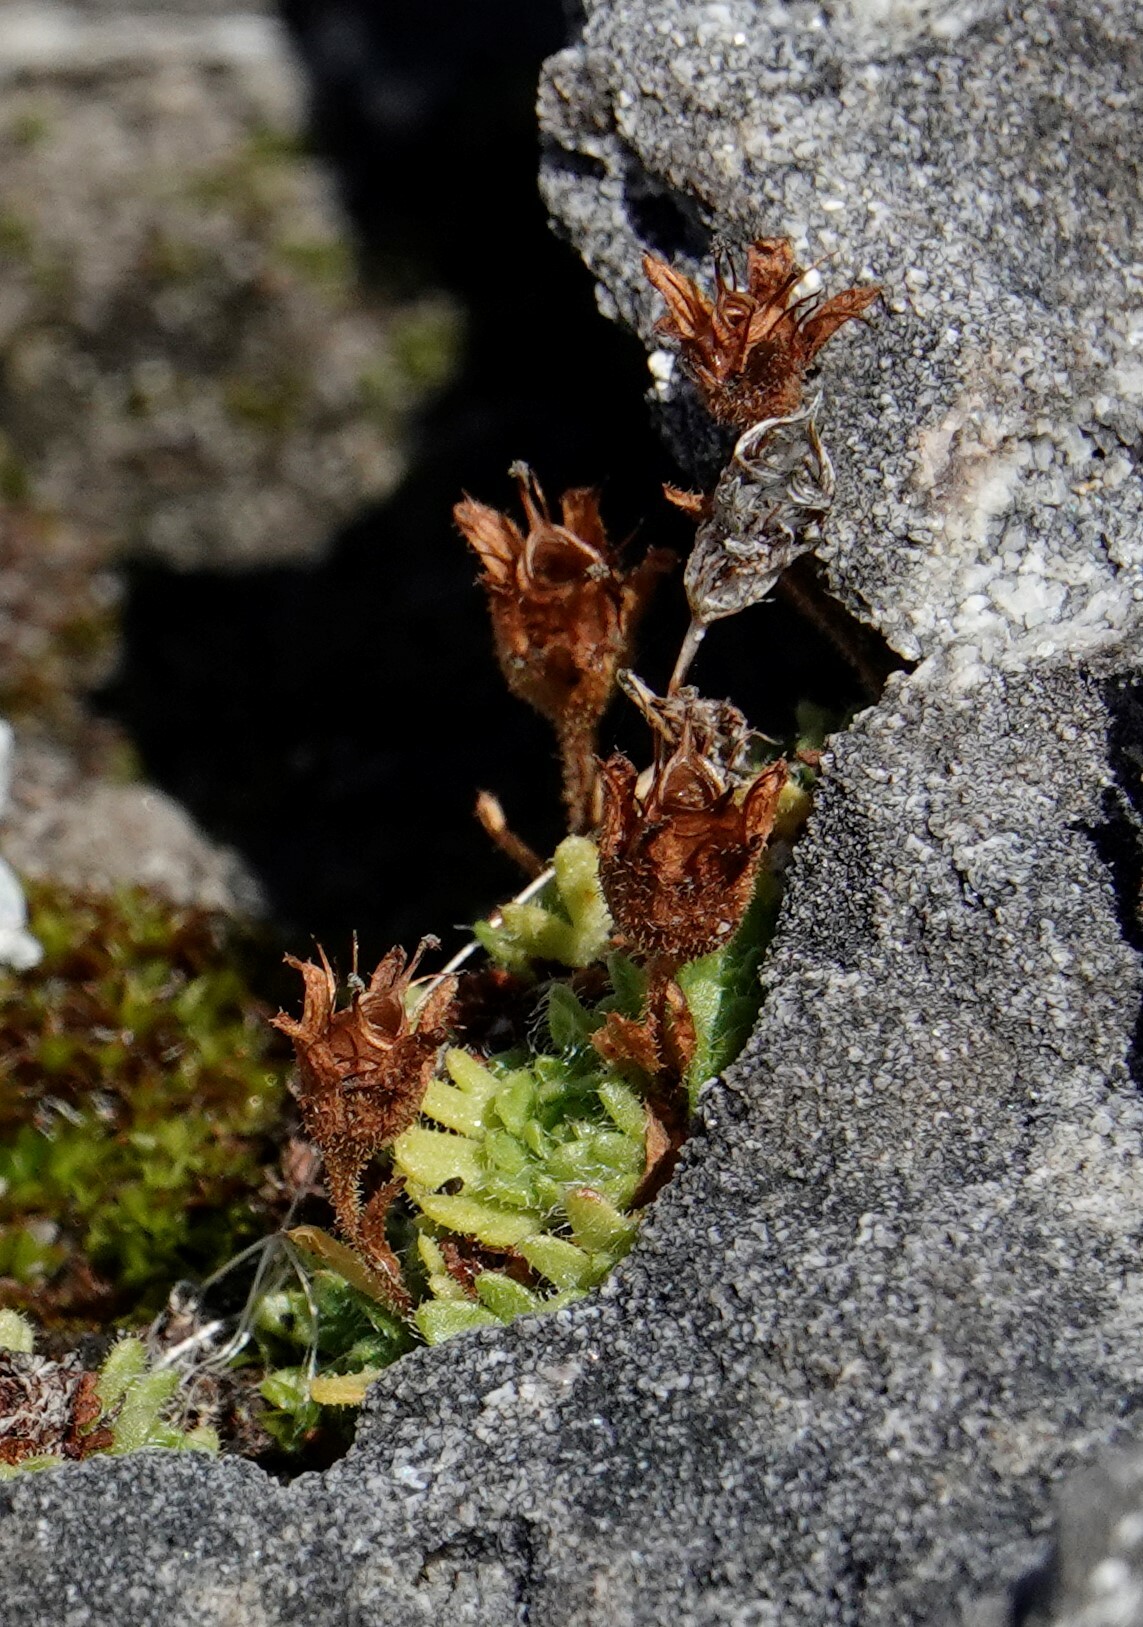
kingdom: Plantae
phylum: Tracheophyta
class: Magnoliopsida
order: Saxifragales
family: Saxifragaceae
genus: Saxifraga
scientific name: Saxifraga cespitosa
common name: Tufted saxifrage
